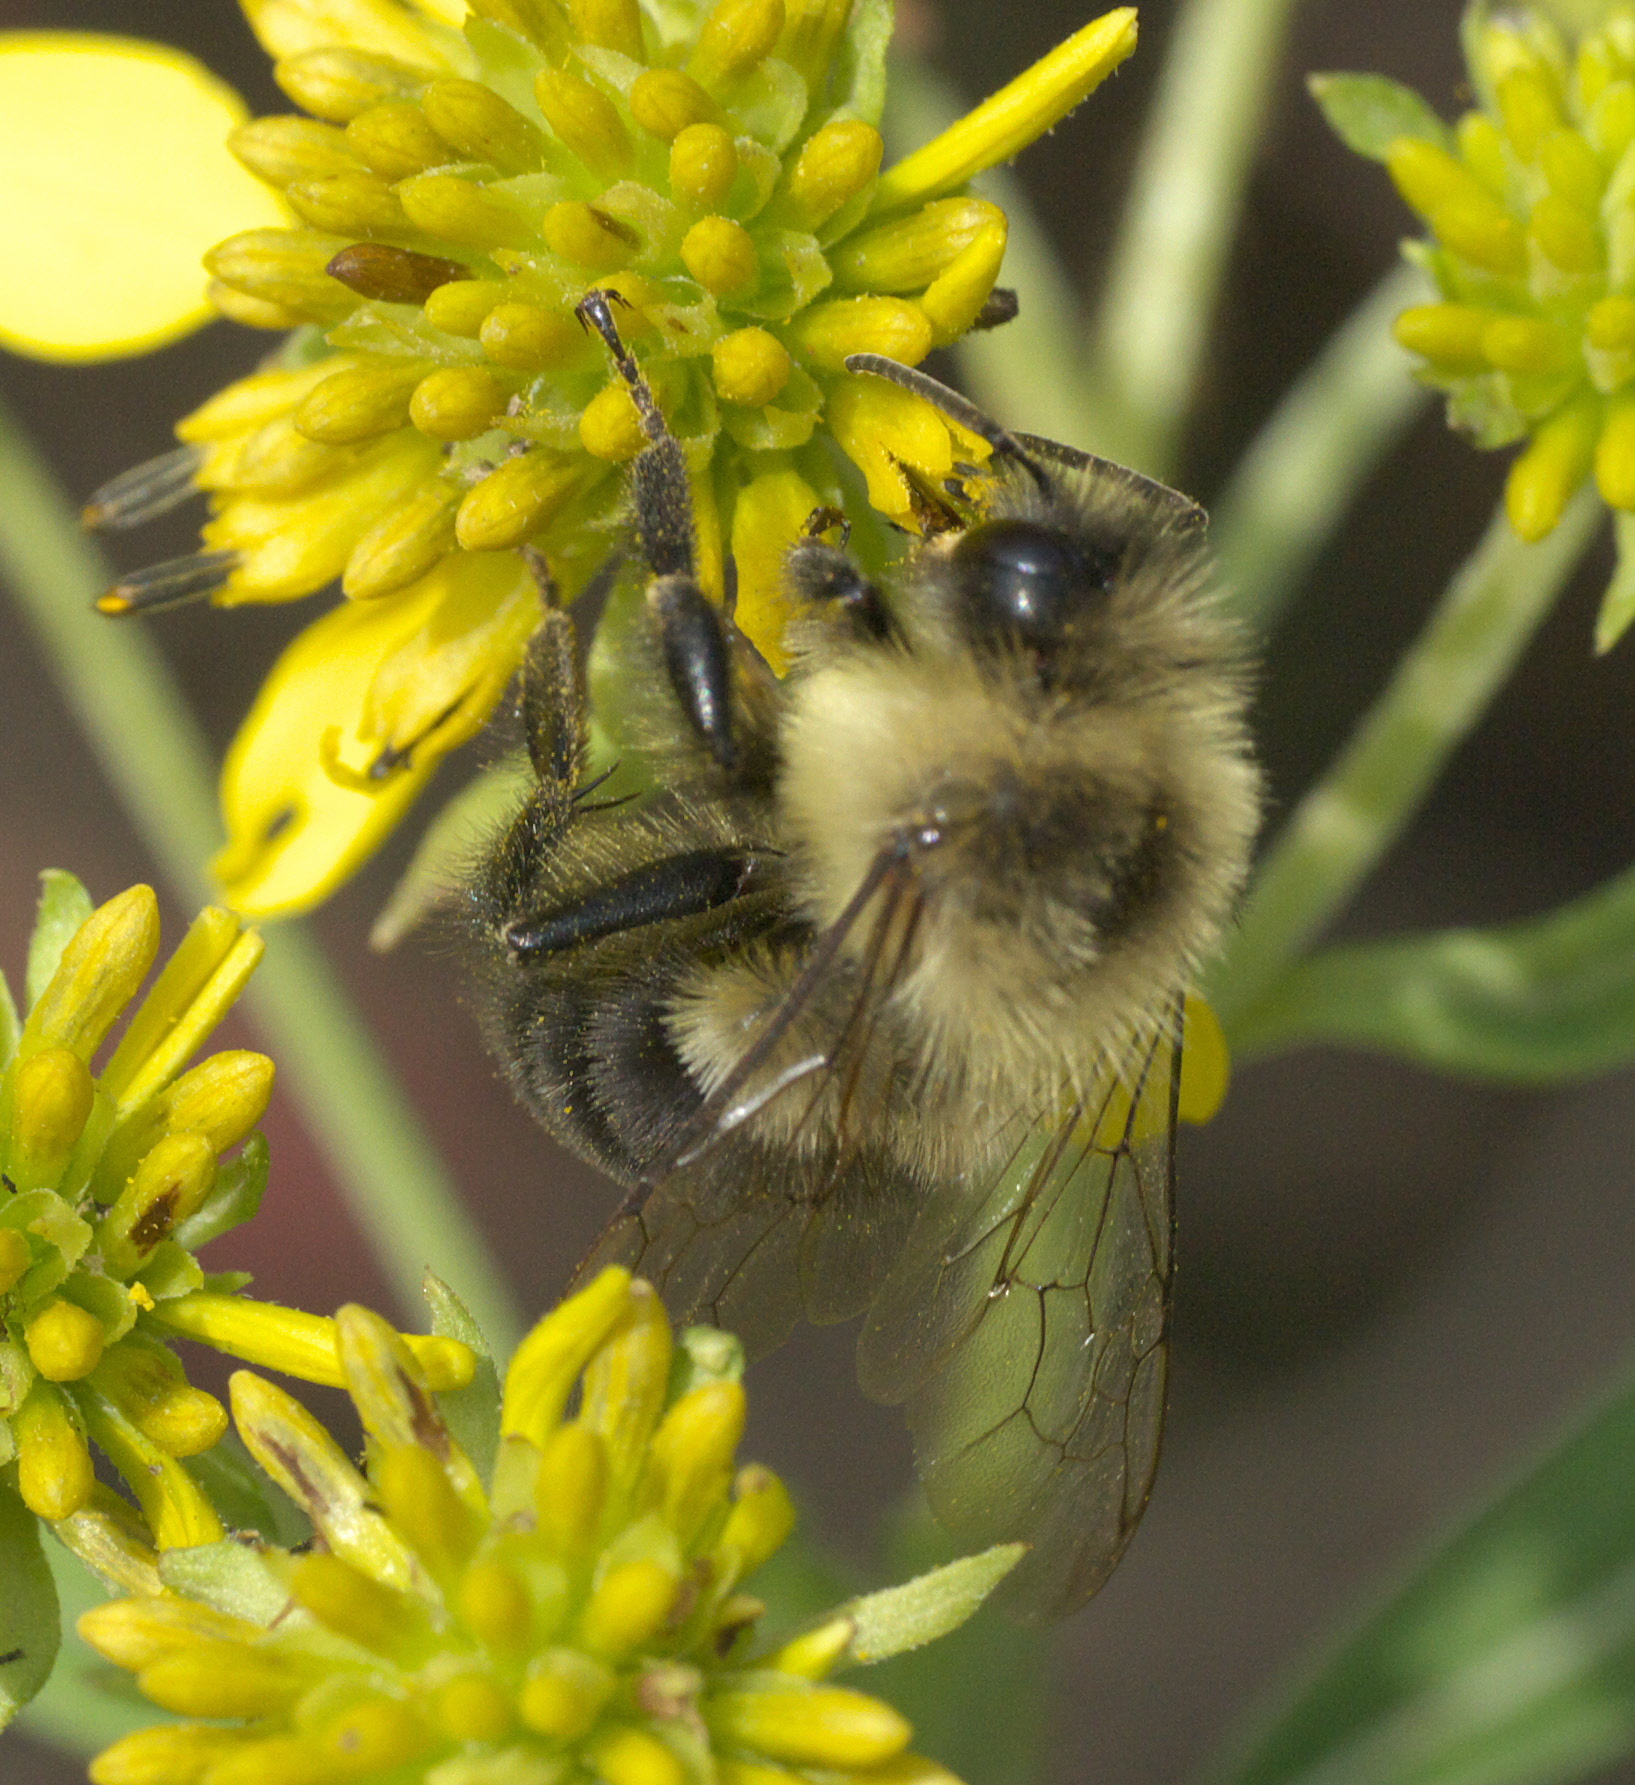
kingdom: Animalia
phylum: Arthropoda
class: Insecta
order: Hymenoptera
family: Apidae
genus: Bombus
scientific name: Bombus impatiens
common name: Common eastern bumble bee
